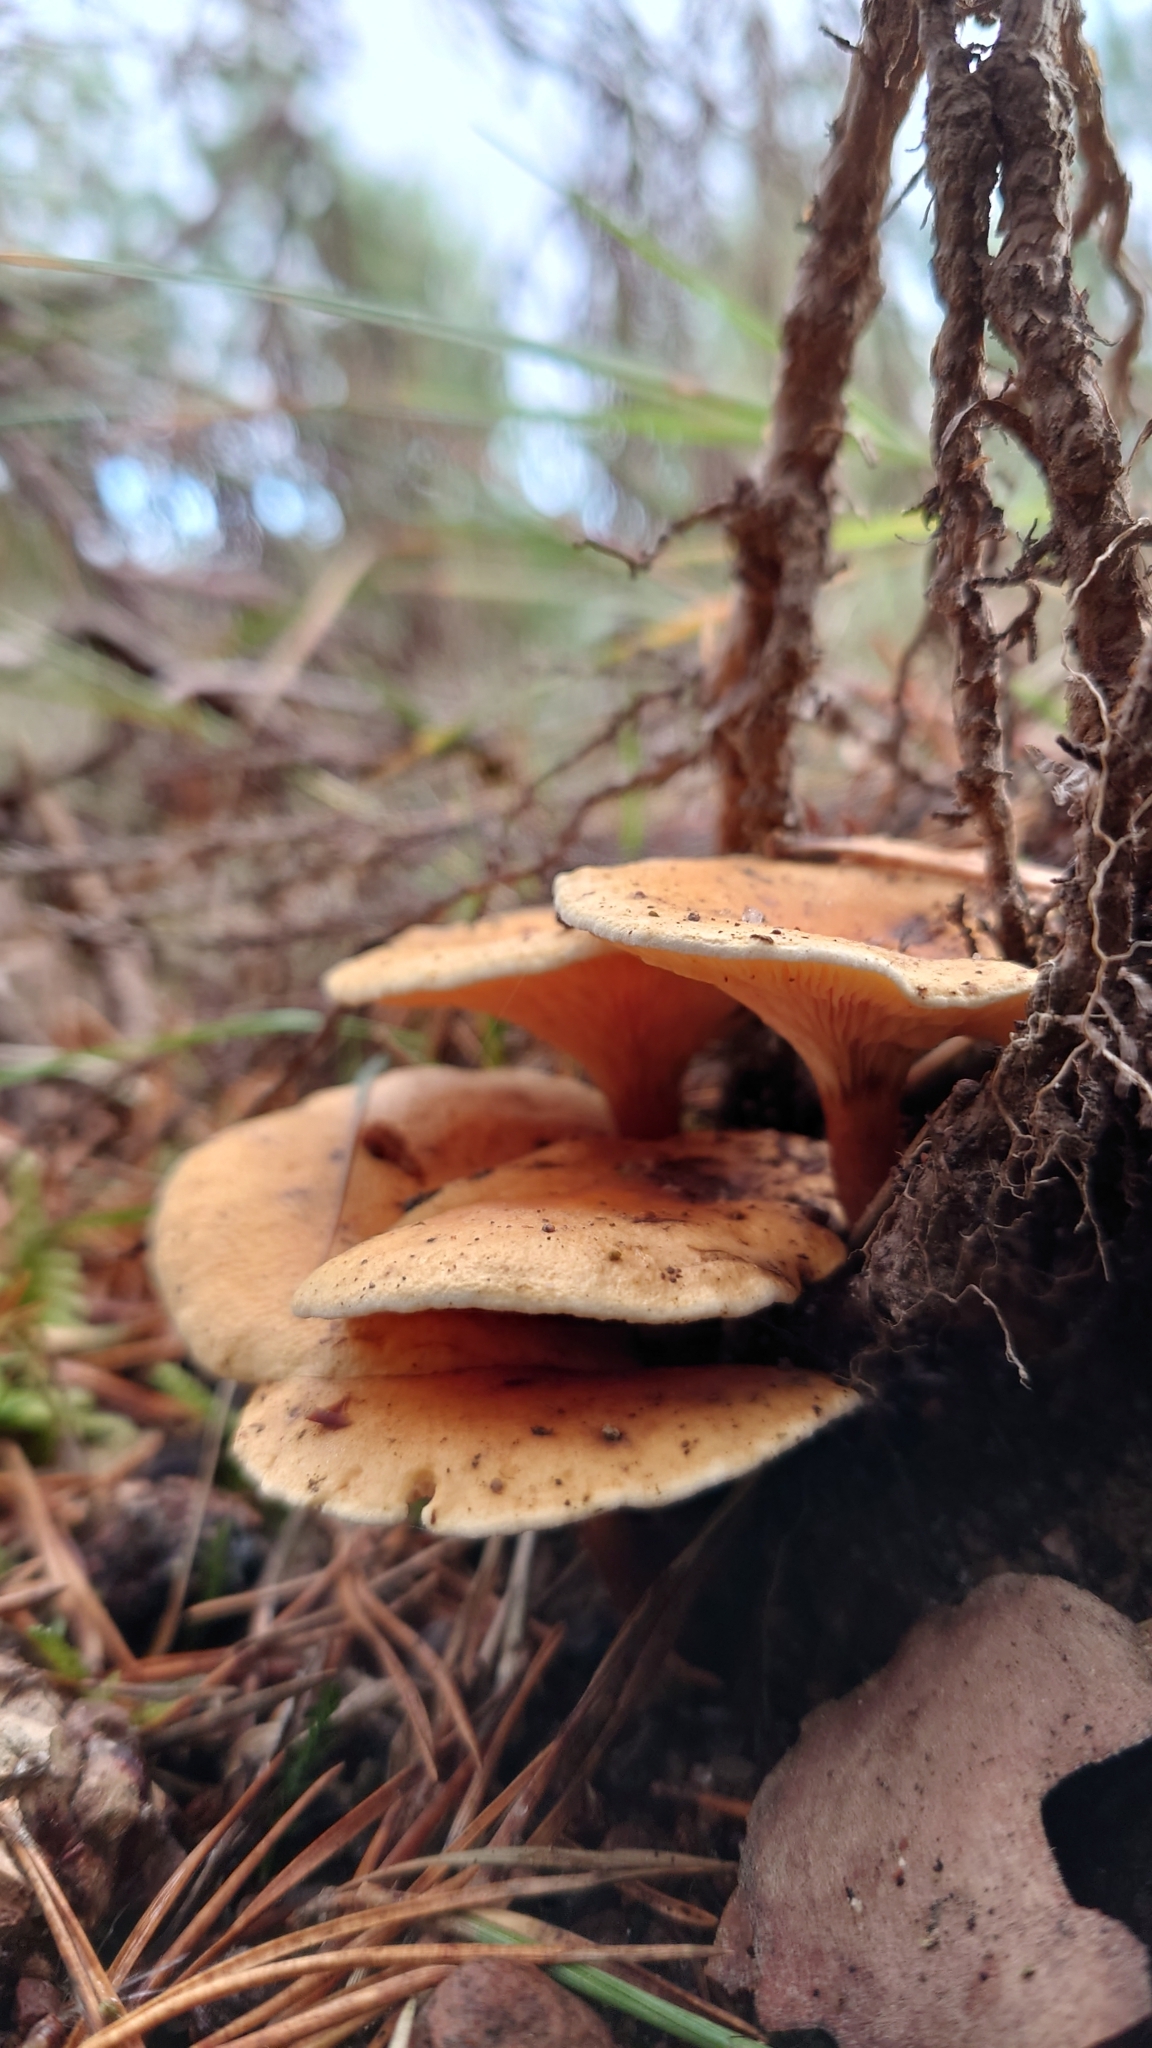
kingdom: Fungi
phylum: Basidiomycota
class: Agaricomycetes
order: Boletales
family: Hygrophoropsidaceae
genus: Hygrophoropsis
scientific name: Hygrophoropsis aurantiaca
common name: False chanterelle
